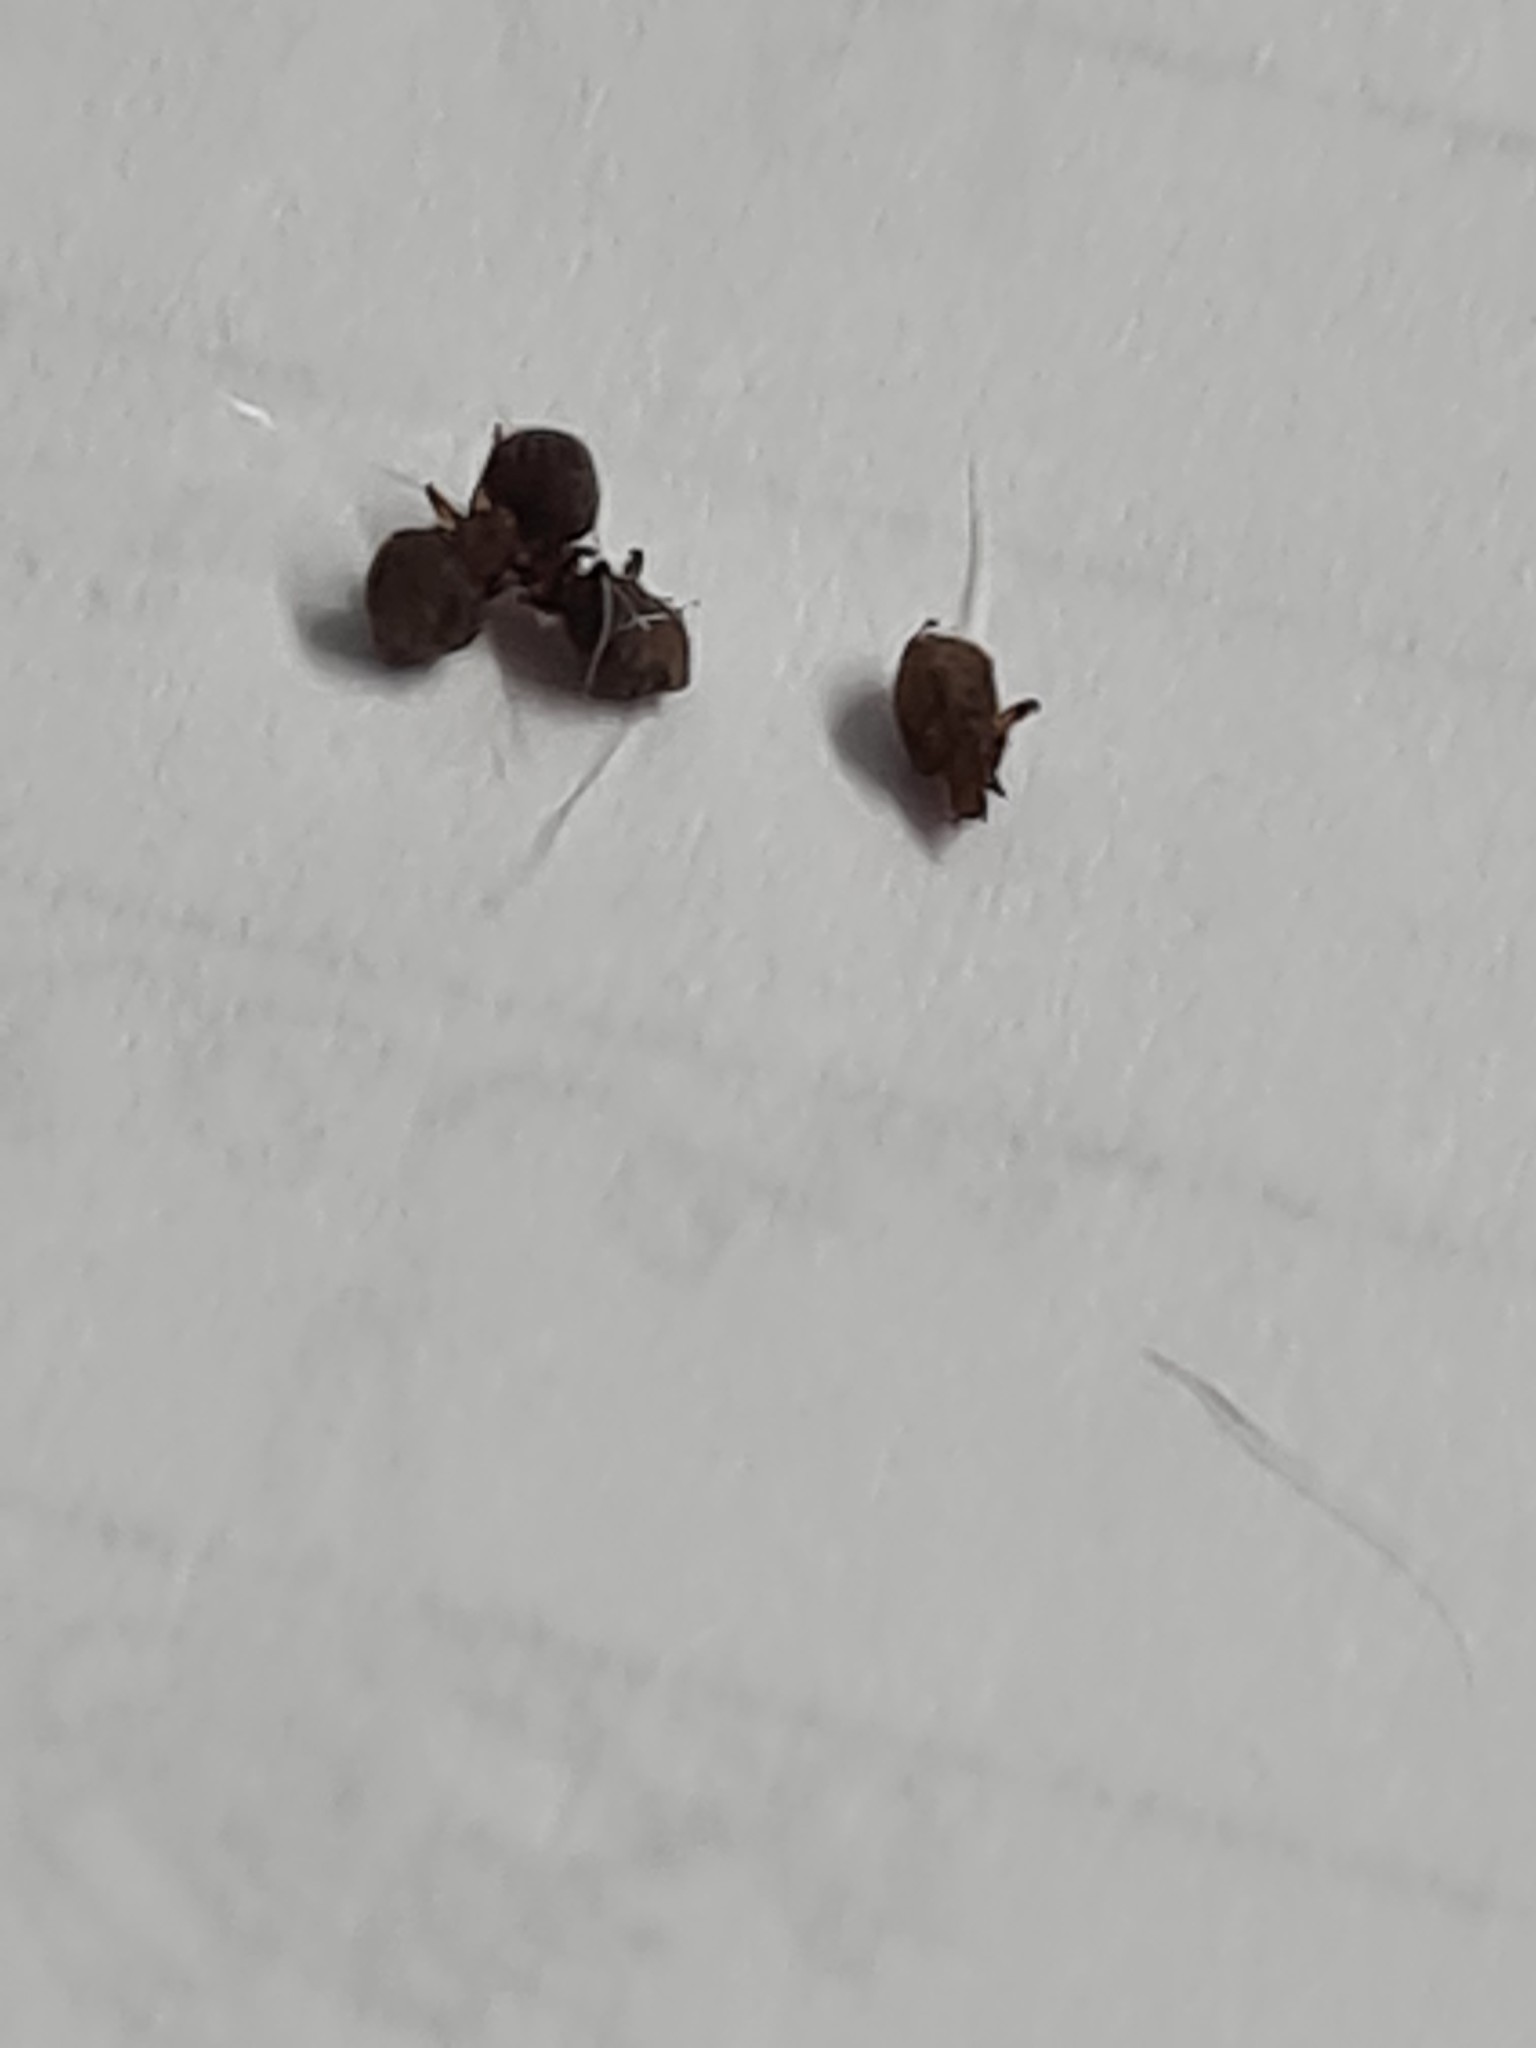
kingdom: Animalia
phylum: Arthropoda
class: Insecta
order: Psocodea
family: Echinophthiriidae
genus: Echinophthirius
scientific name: Echinophthirius horridus
